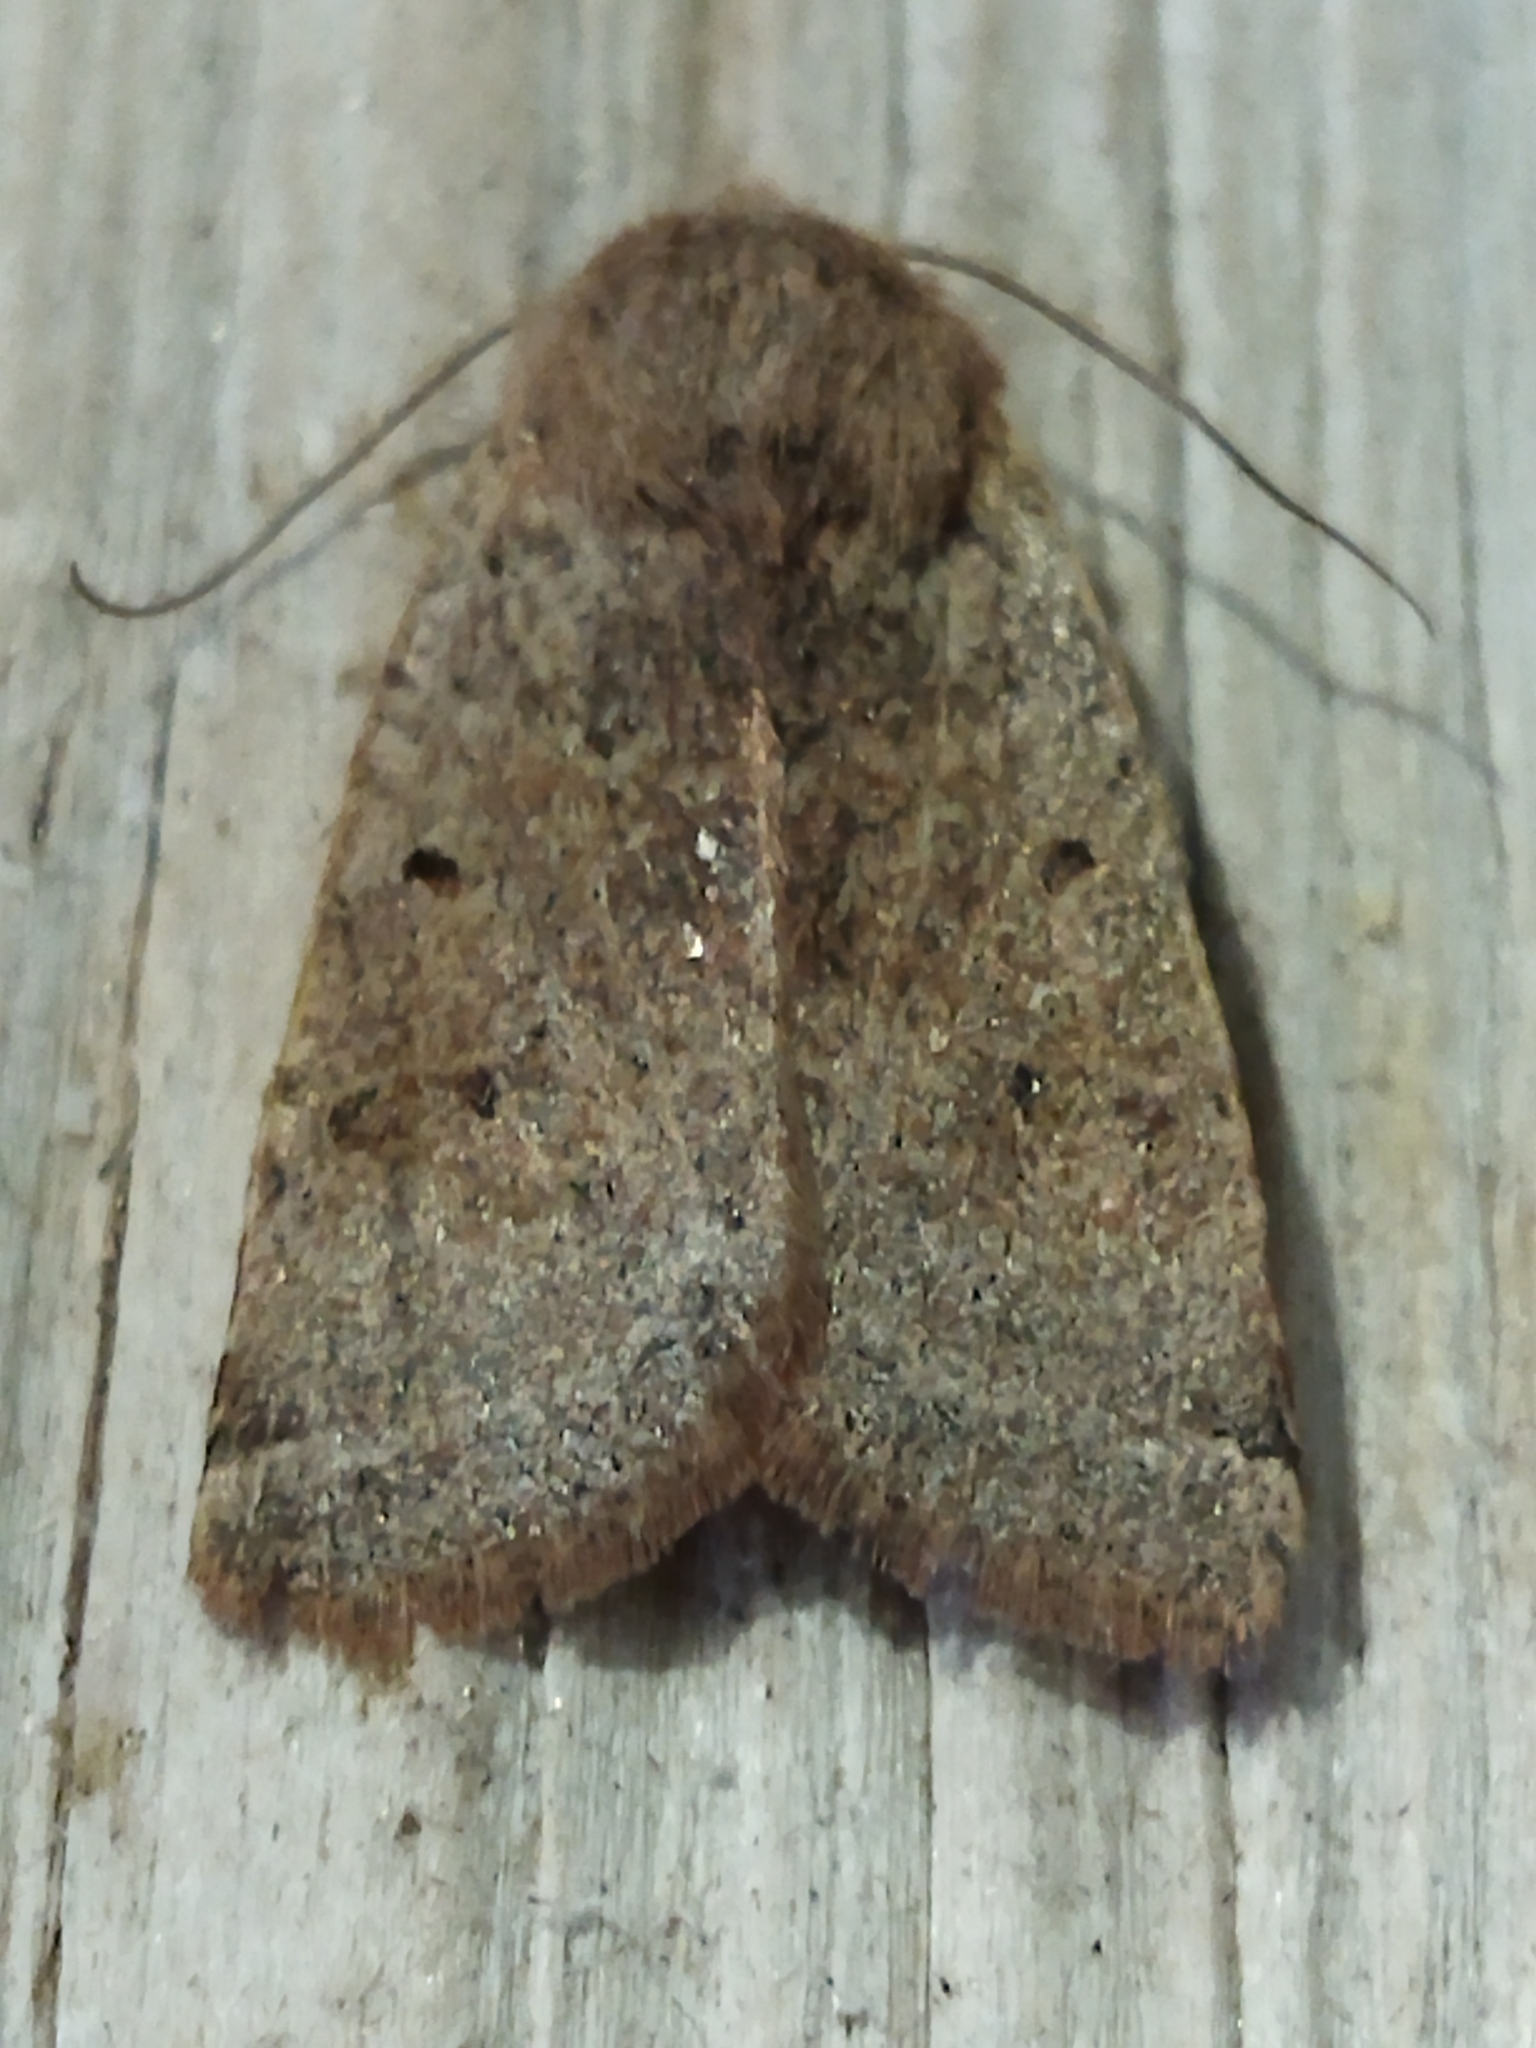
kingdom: Animalia
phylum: Arthropoda
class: Insecta
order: Lepidoptera
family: Noctuidae
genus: Agrochola
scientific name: Agrochola lychnidis
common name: Beaded chestnut
